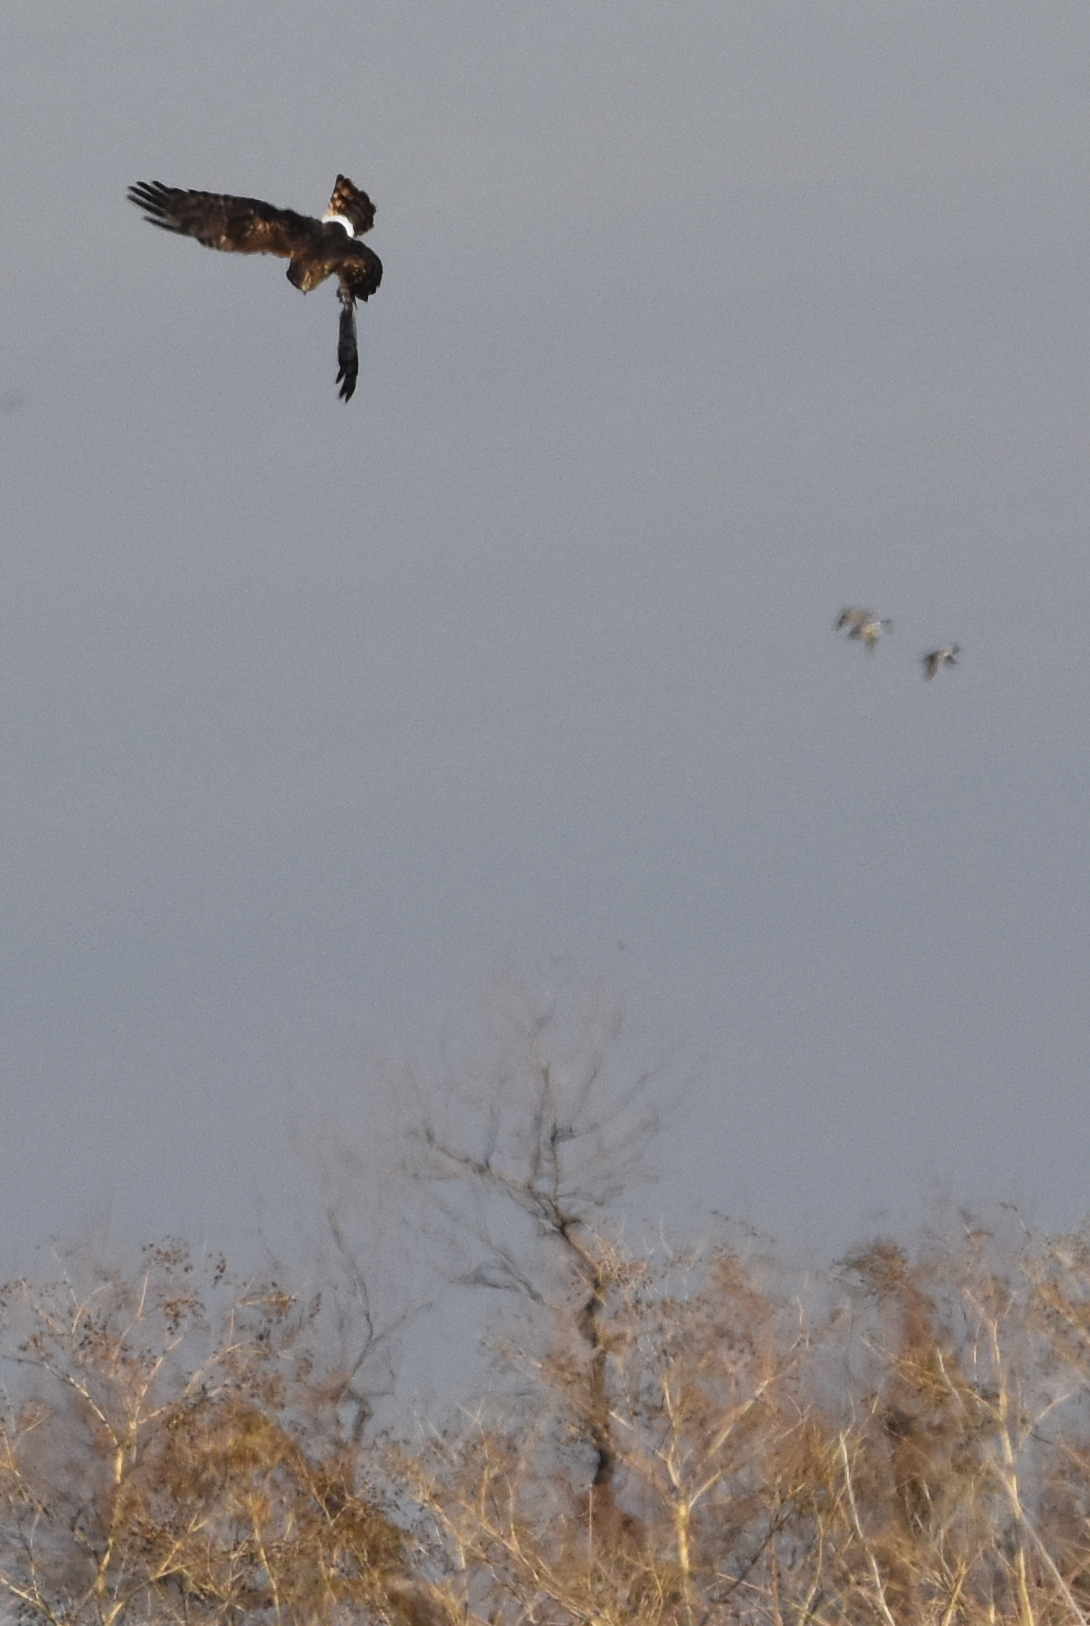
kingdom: Animalia
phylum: Chordata
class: Aves
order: Accipitriformes
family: Accipitridae
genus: Circus
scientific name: Circus cyaneus
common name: Hen harrier
